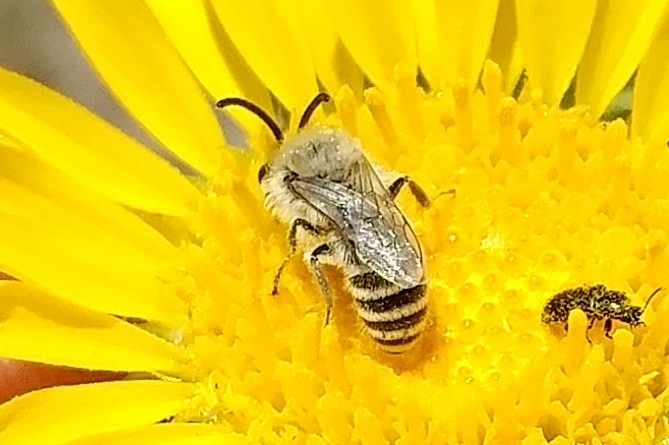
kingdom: Animalia
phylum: Arthropoda
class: Insecta
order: Hymenoptera
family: Colletidae
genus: Colletes
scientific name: Colletes hyalinus
